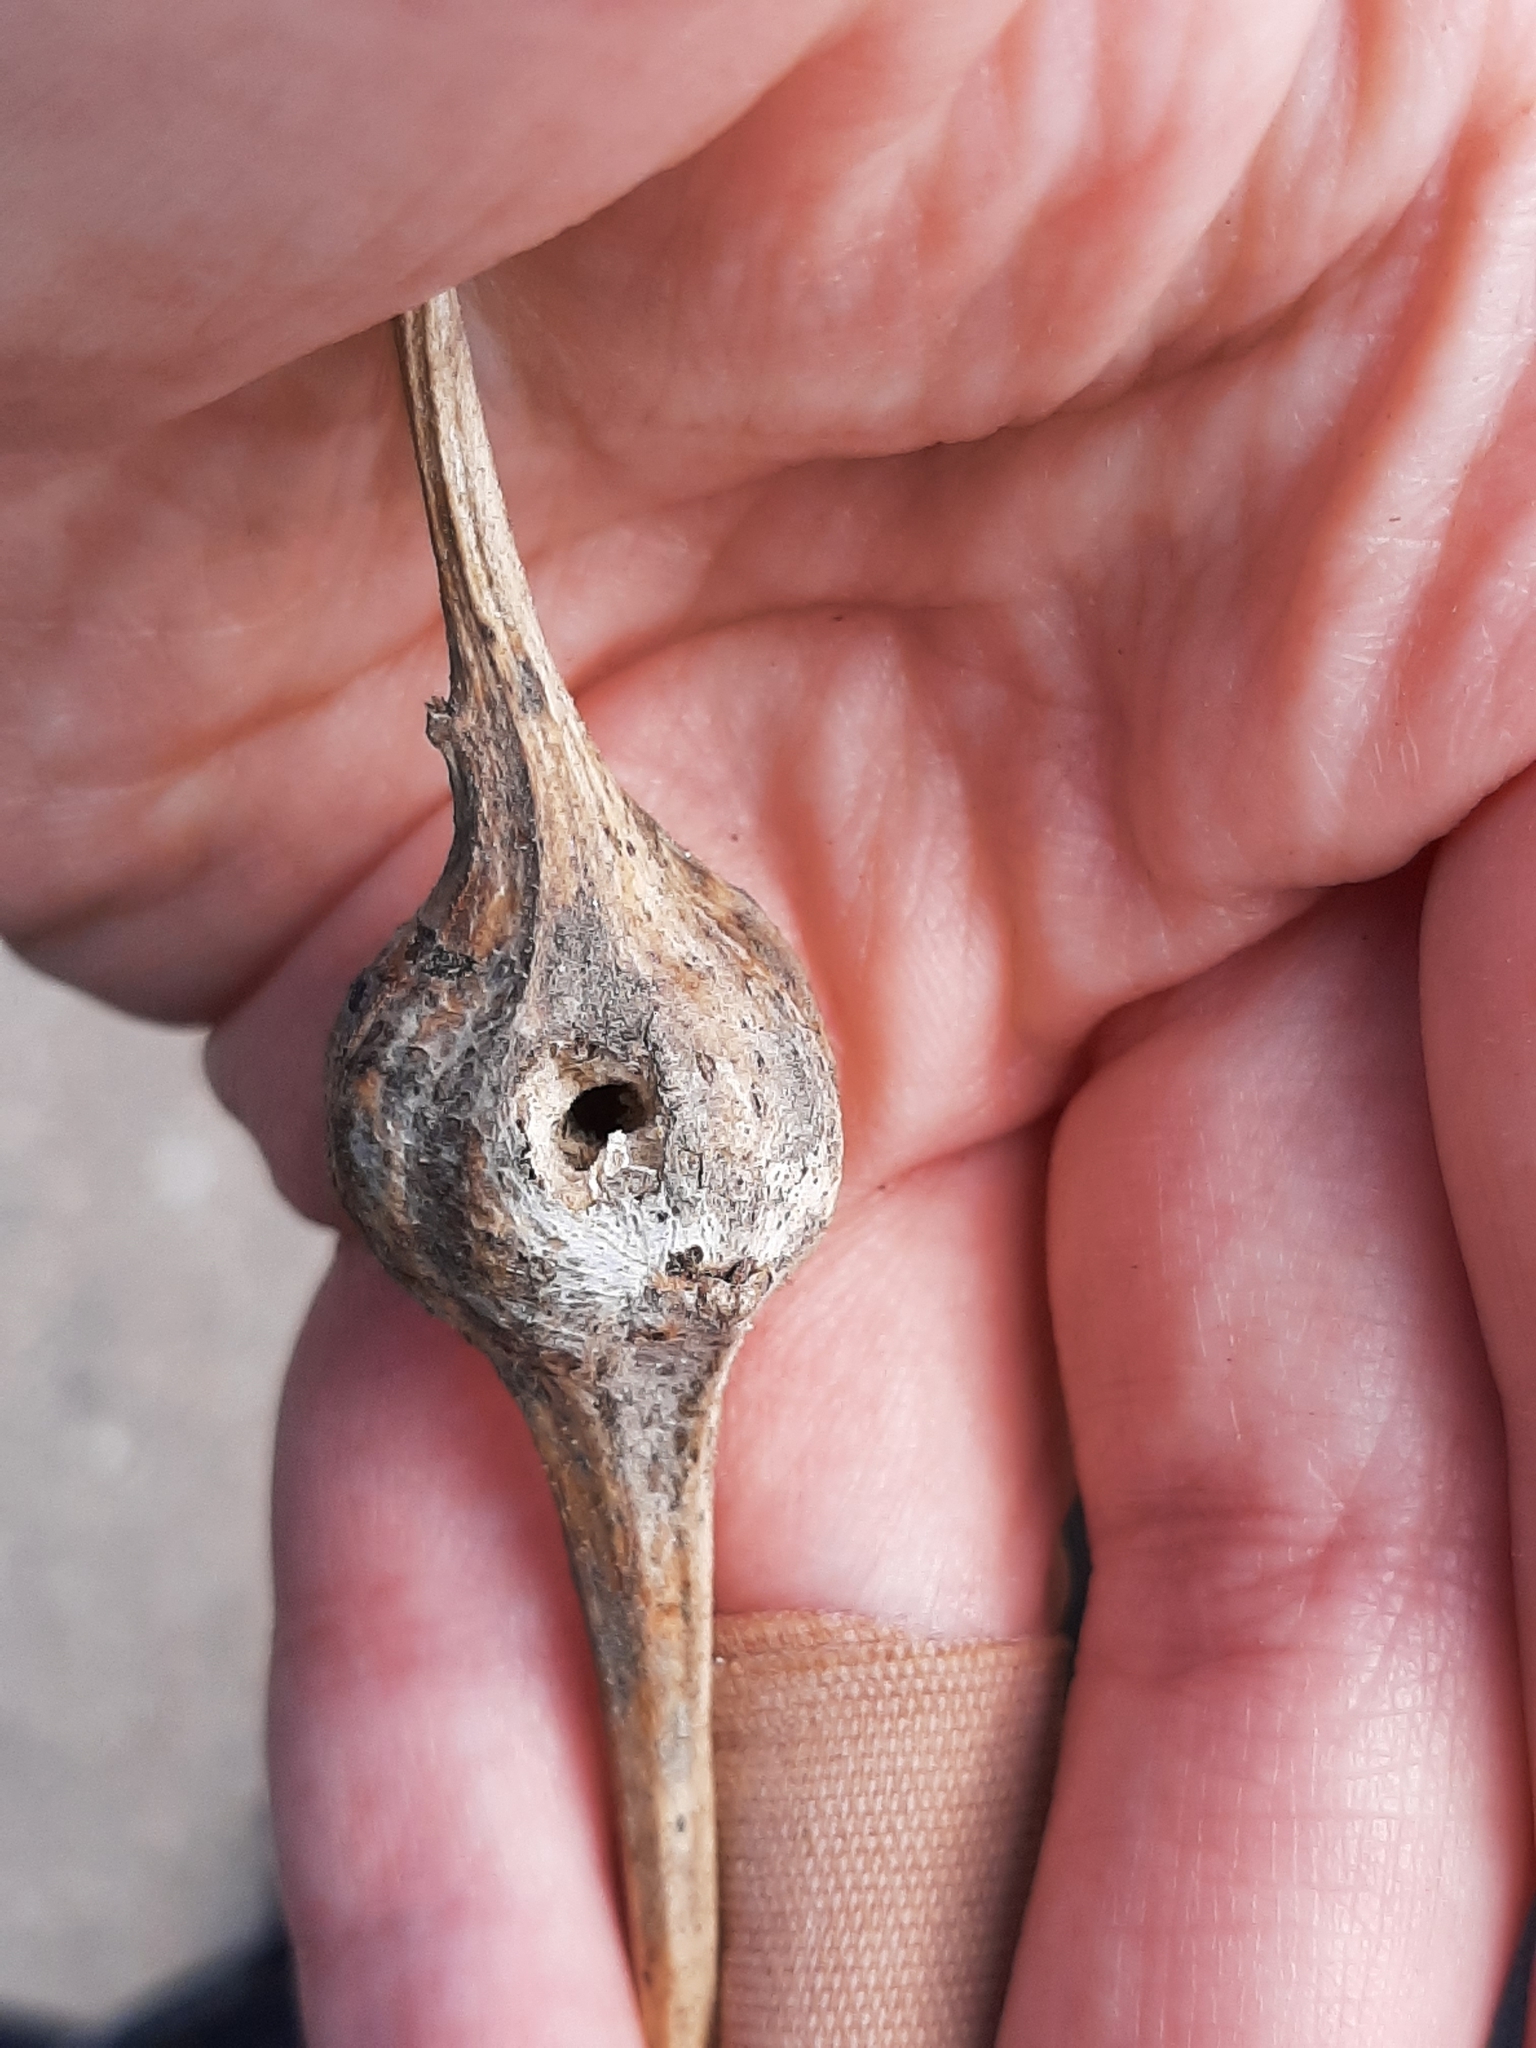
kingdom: Animalia
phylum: Arthropoda
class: Insecta
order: Diptera
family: Tephritidae
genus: Eurosta
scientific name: Eurosta solidaginis
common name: Goldenrod gall fly
